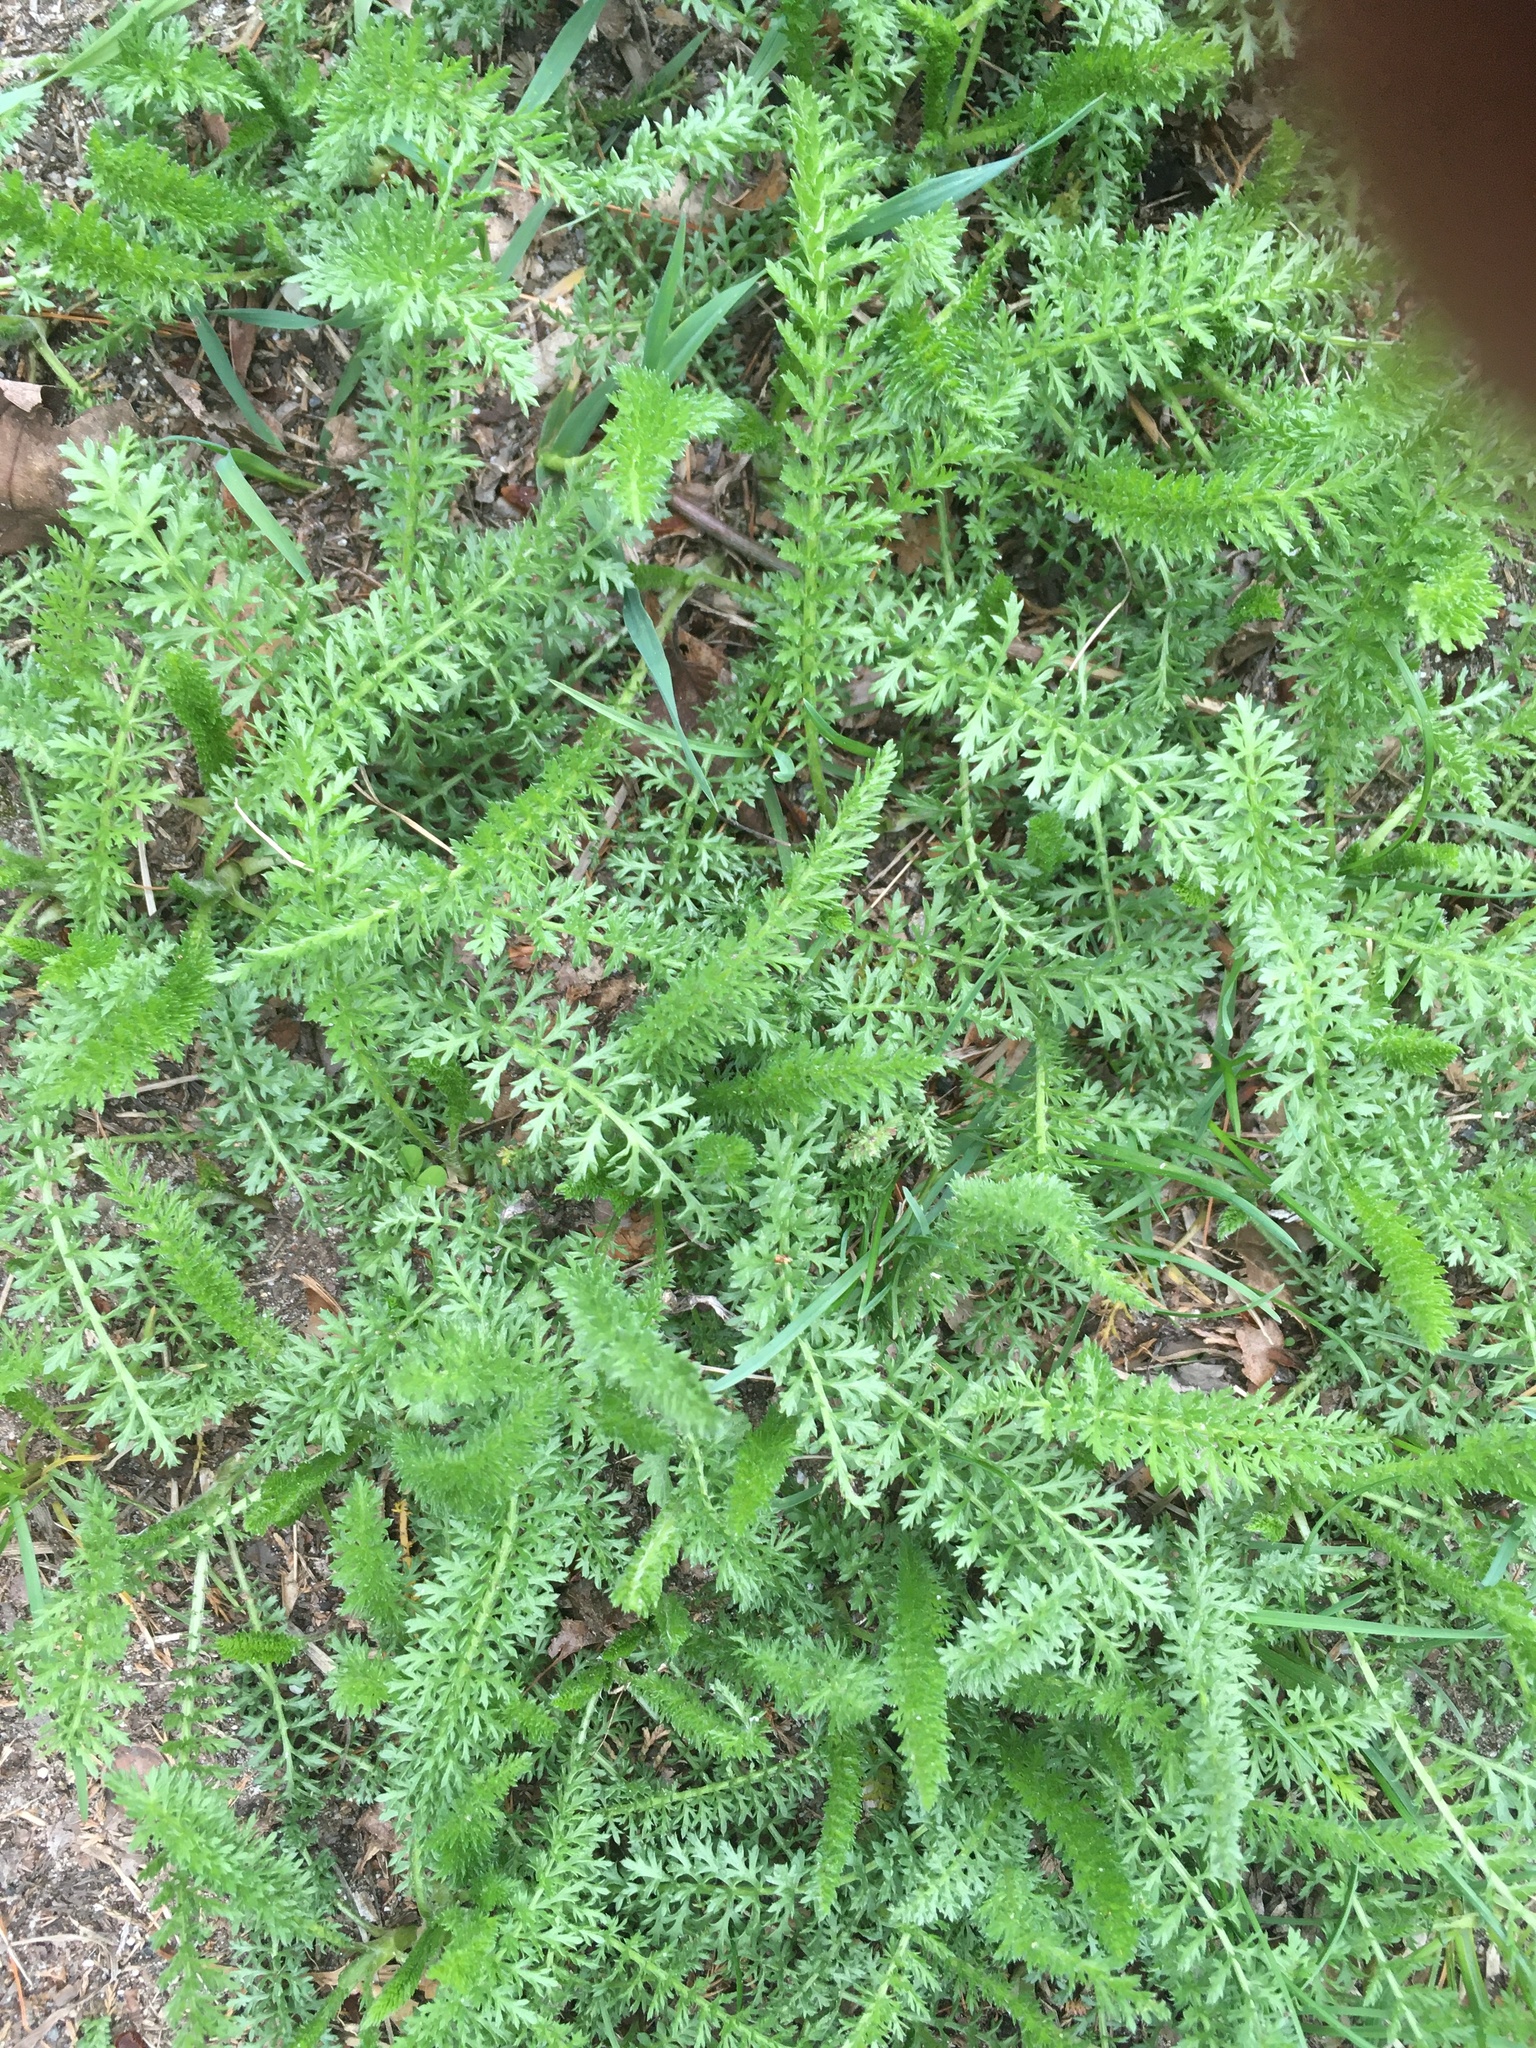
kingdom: Plantae
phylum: Tracheophyta
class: Magnoliopsida
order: Asterales
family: Asteraceae
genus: Achillea
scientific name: Achillea millefolium
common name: Yarrow
